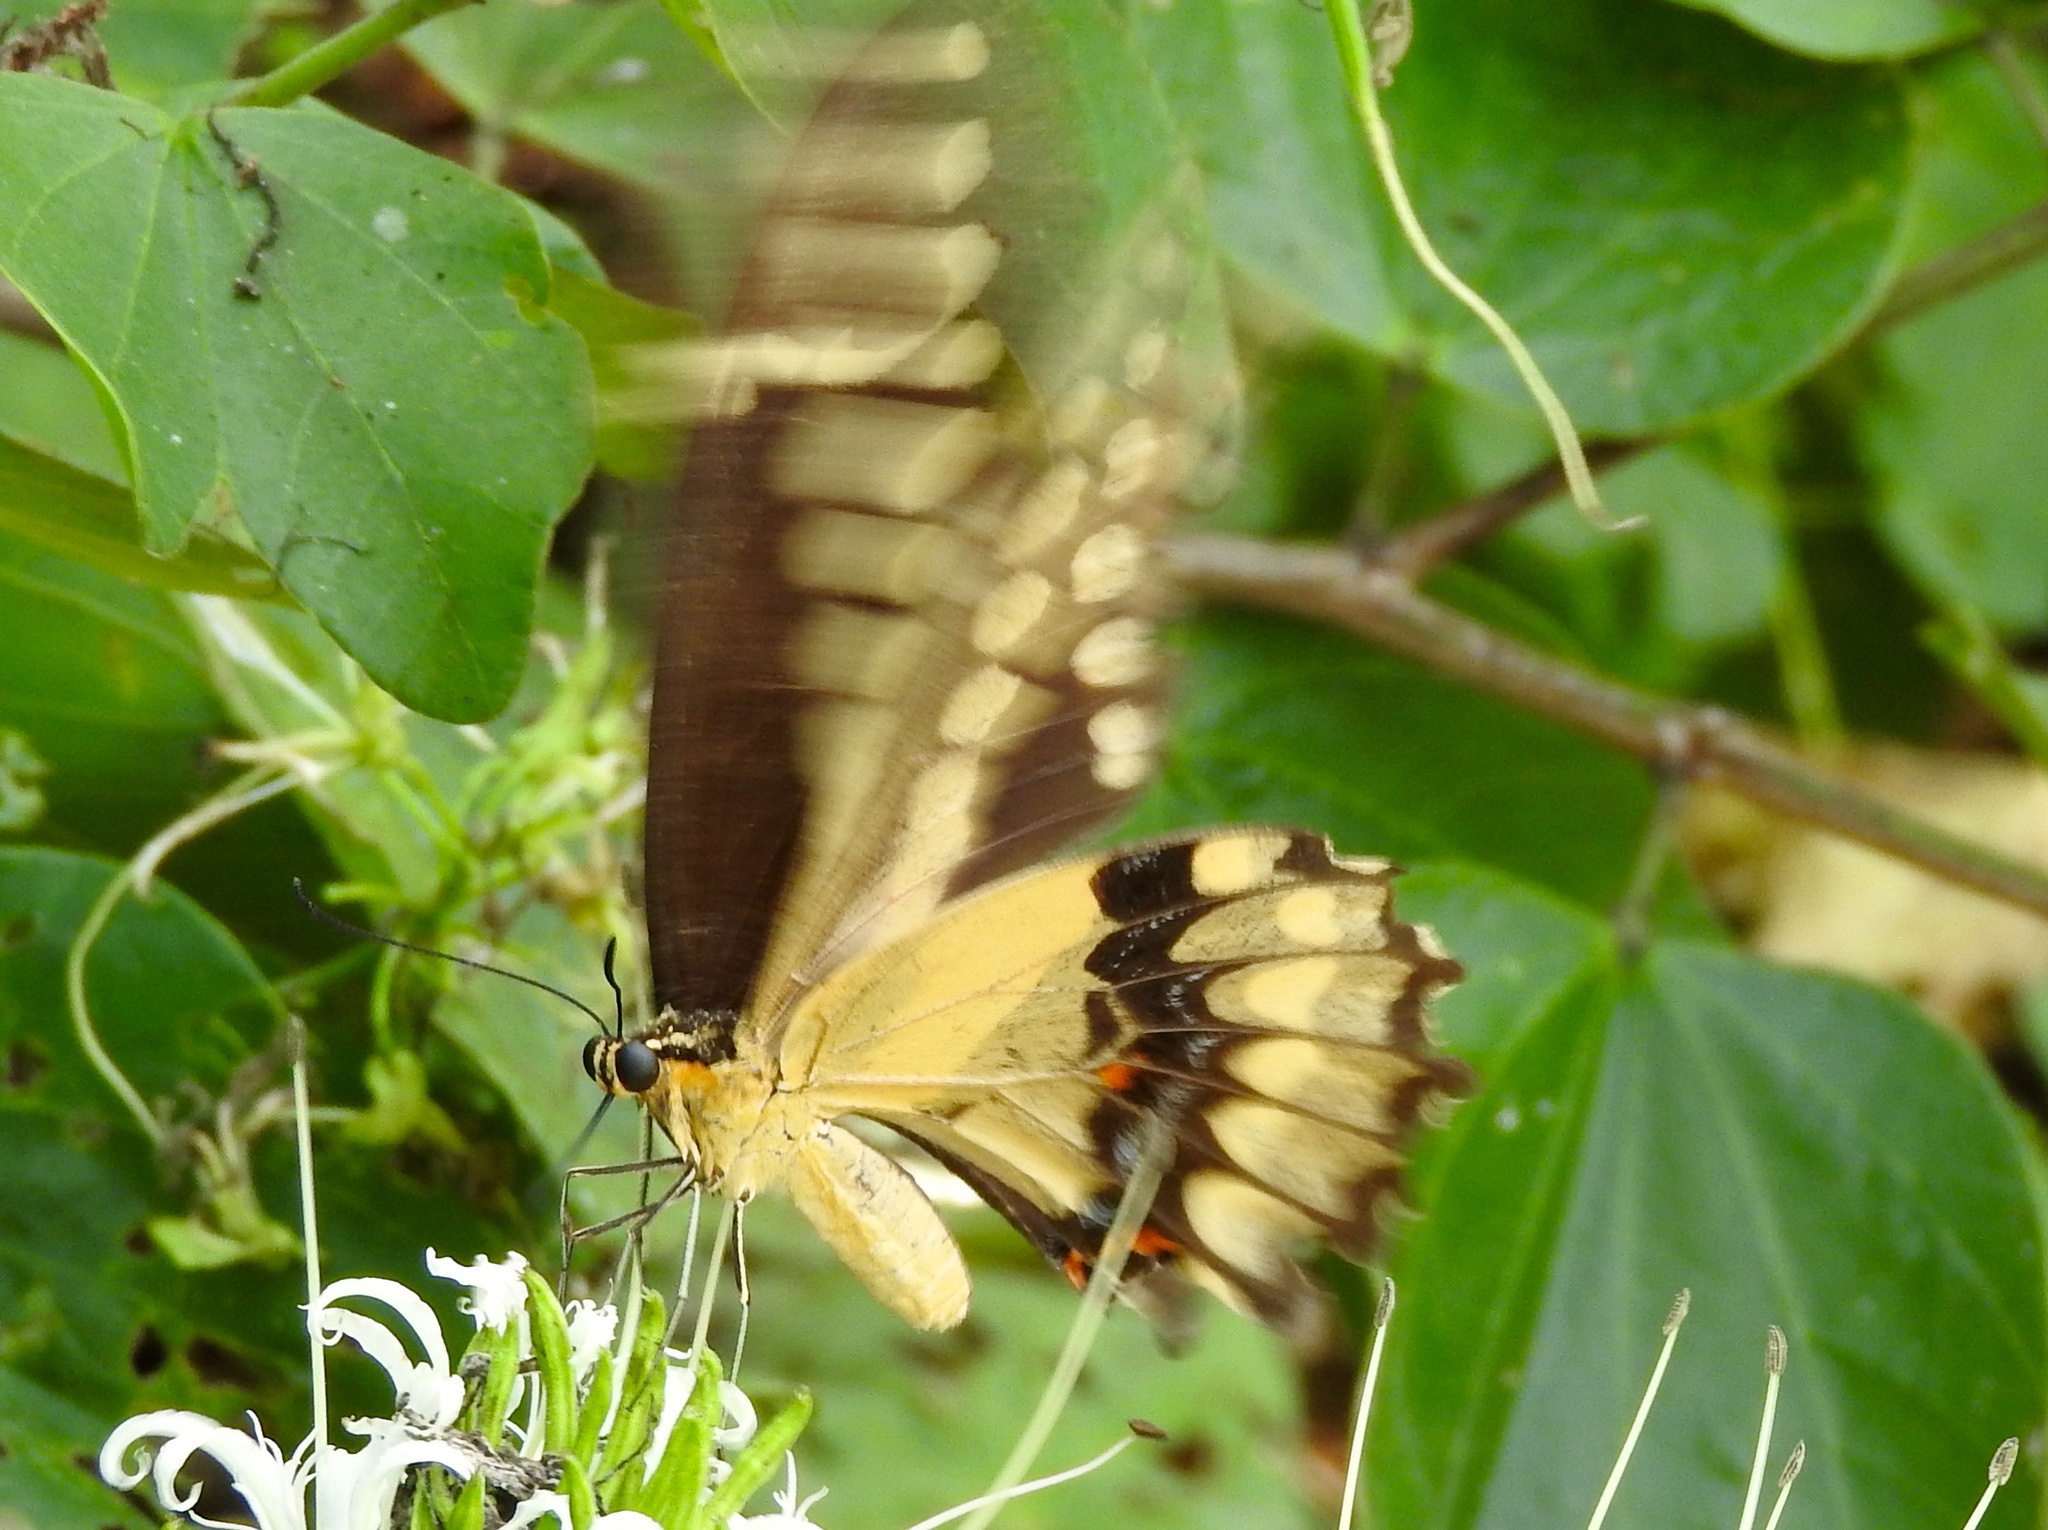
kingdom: Animalia
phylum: Arthropoda
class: Insecta
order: Lepidoptera
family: Papilionidae
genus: Papilio
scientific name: Papilio rumiko
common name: Western giant swallowtail
